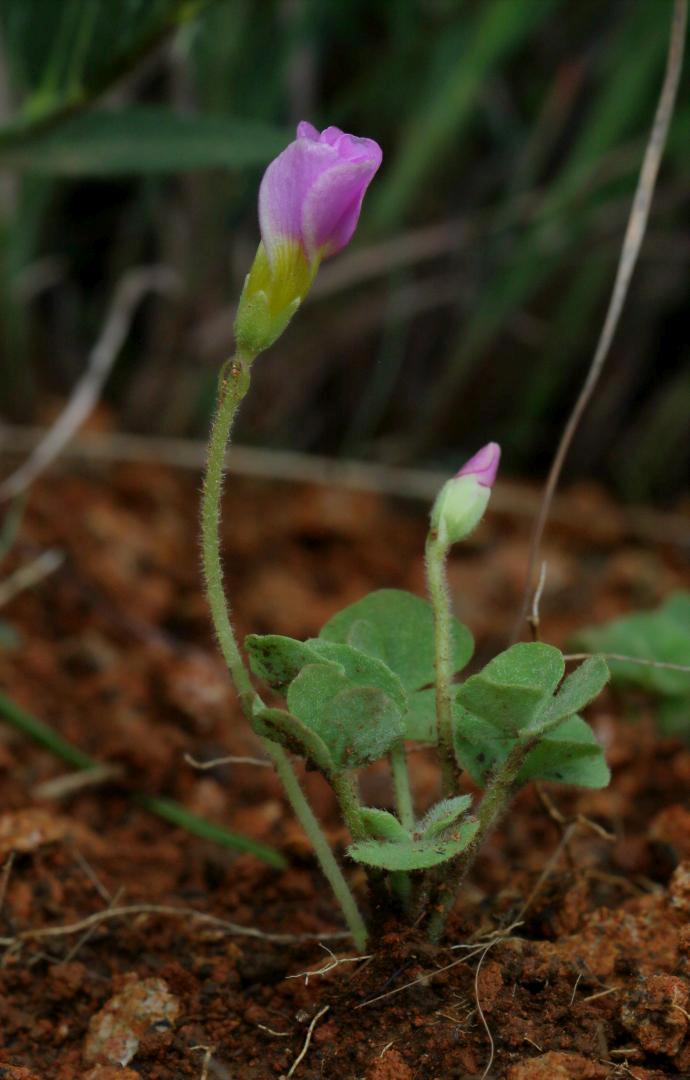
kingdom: Plantae
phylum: Tracheophyta
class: Magnoliopsida
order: Oxalidales
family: Oxalidaceae
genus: Oxalis
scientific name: Oxalis obliquifolia
